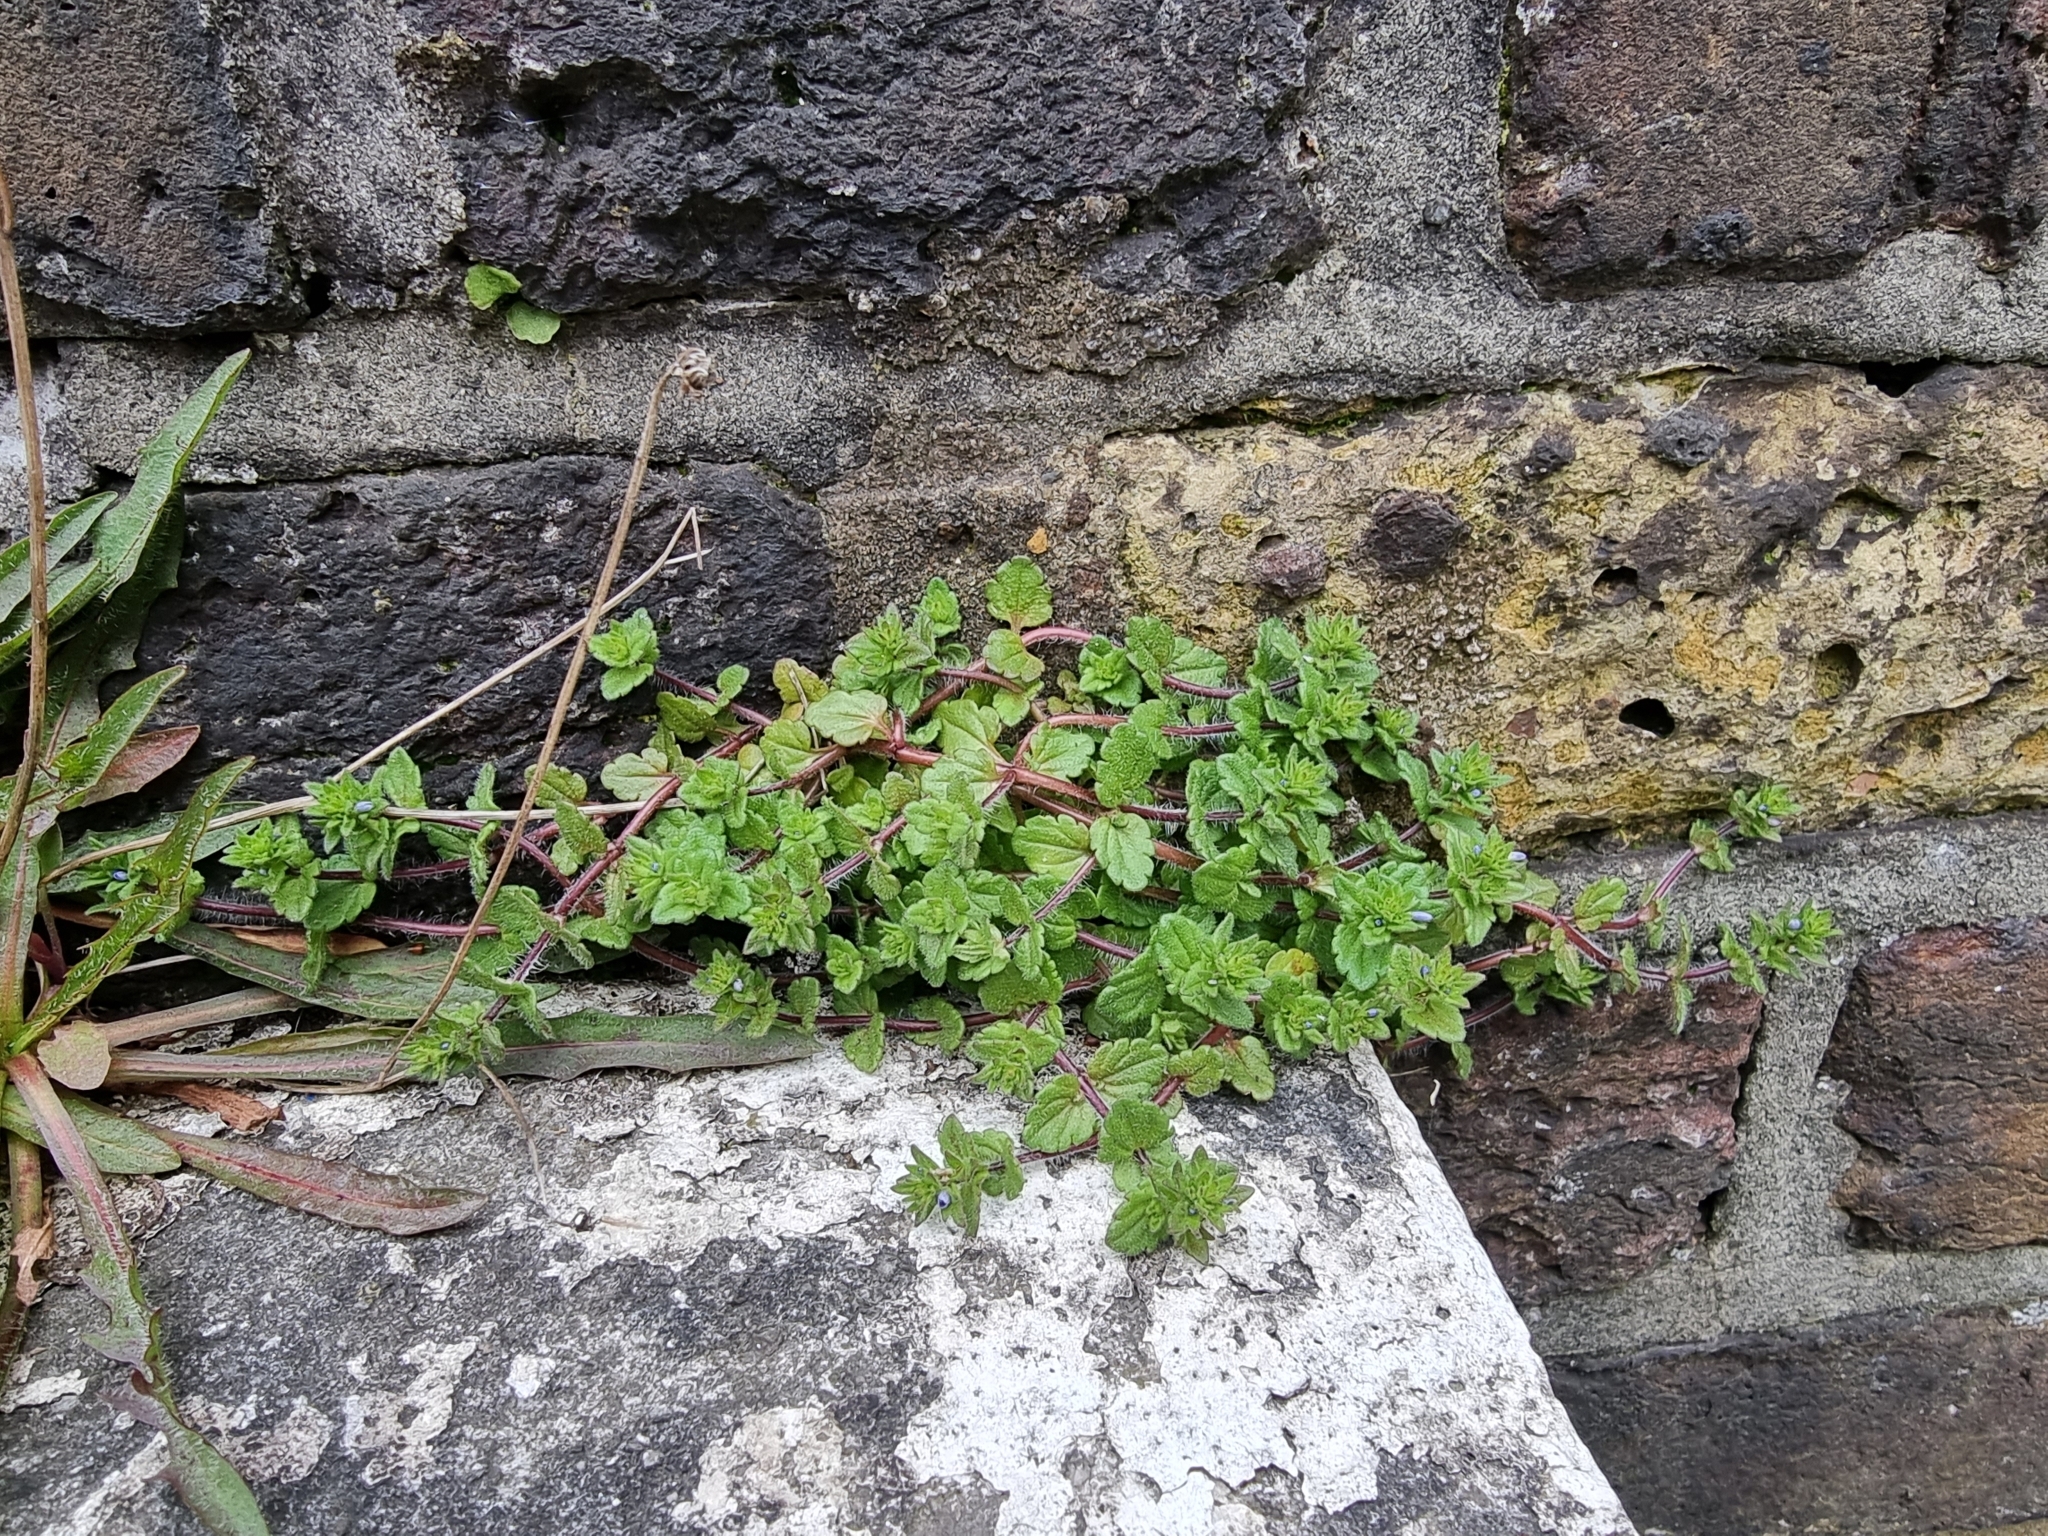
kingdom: Plantae
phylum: Tracheophyta
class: Magnoliopsida
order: Lamiales
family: Plantaginaceae
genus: Veronica
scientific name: Veronica arvensis
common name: Corn speedwell
